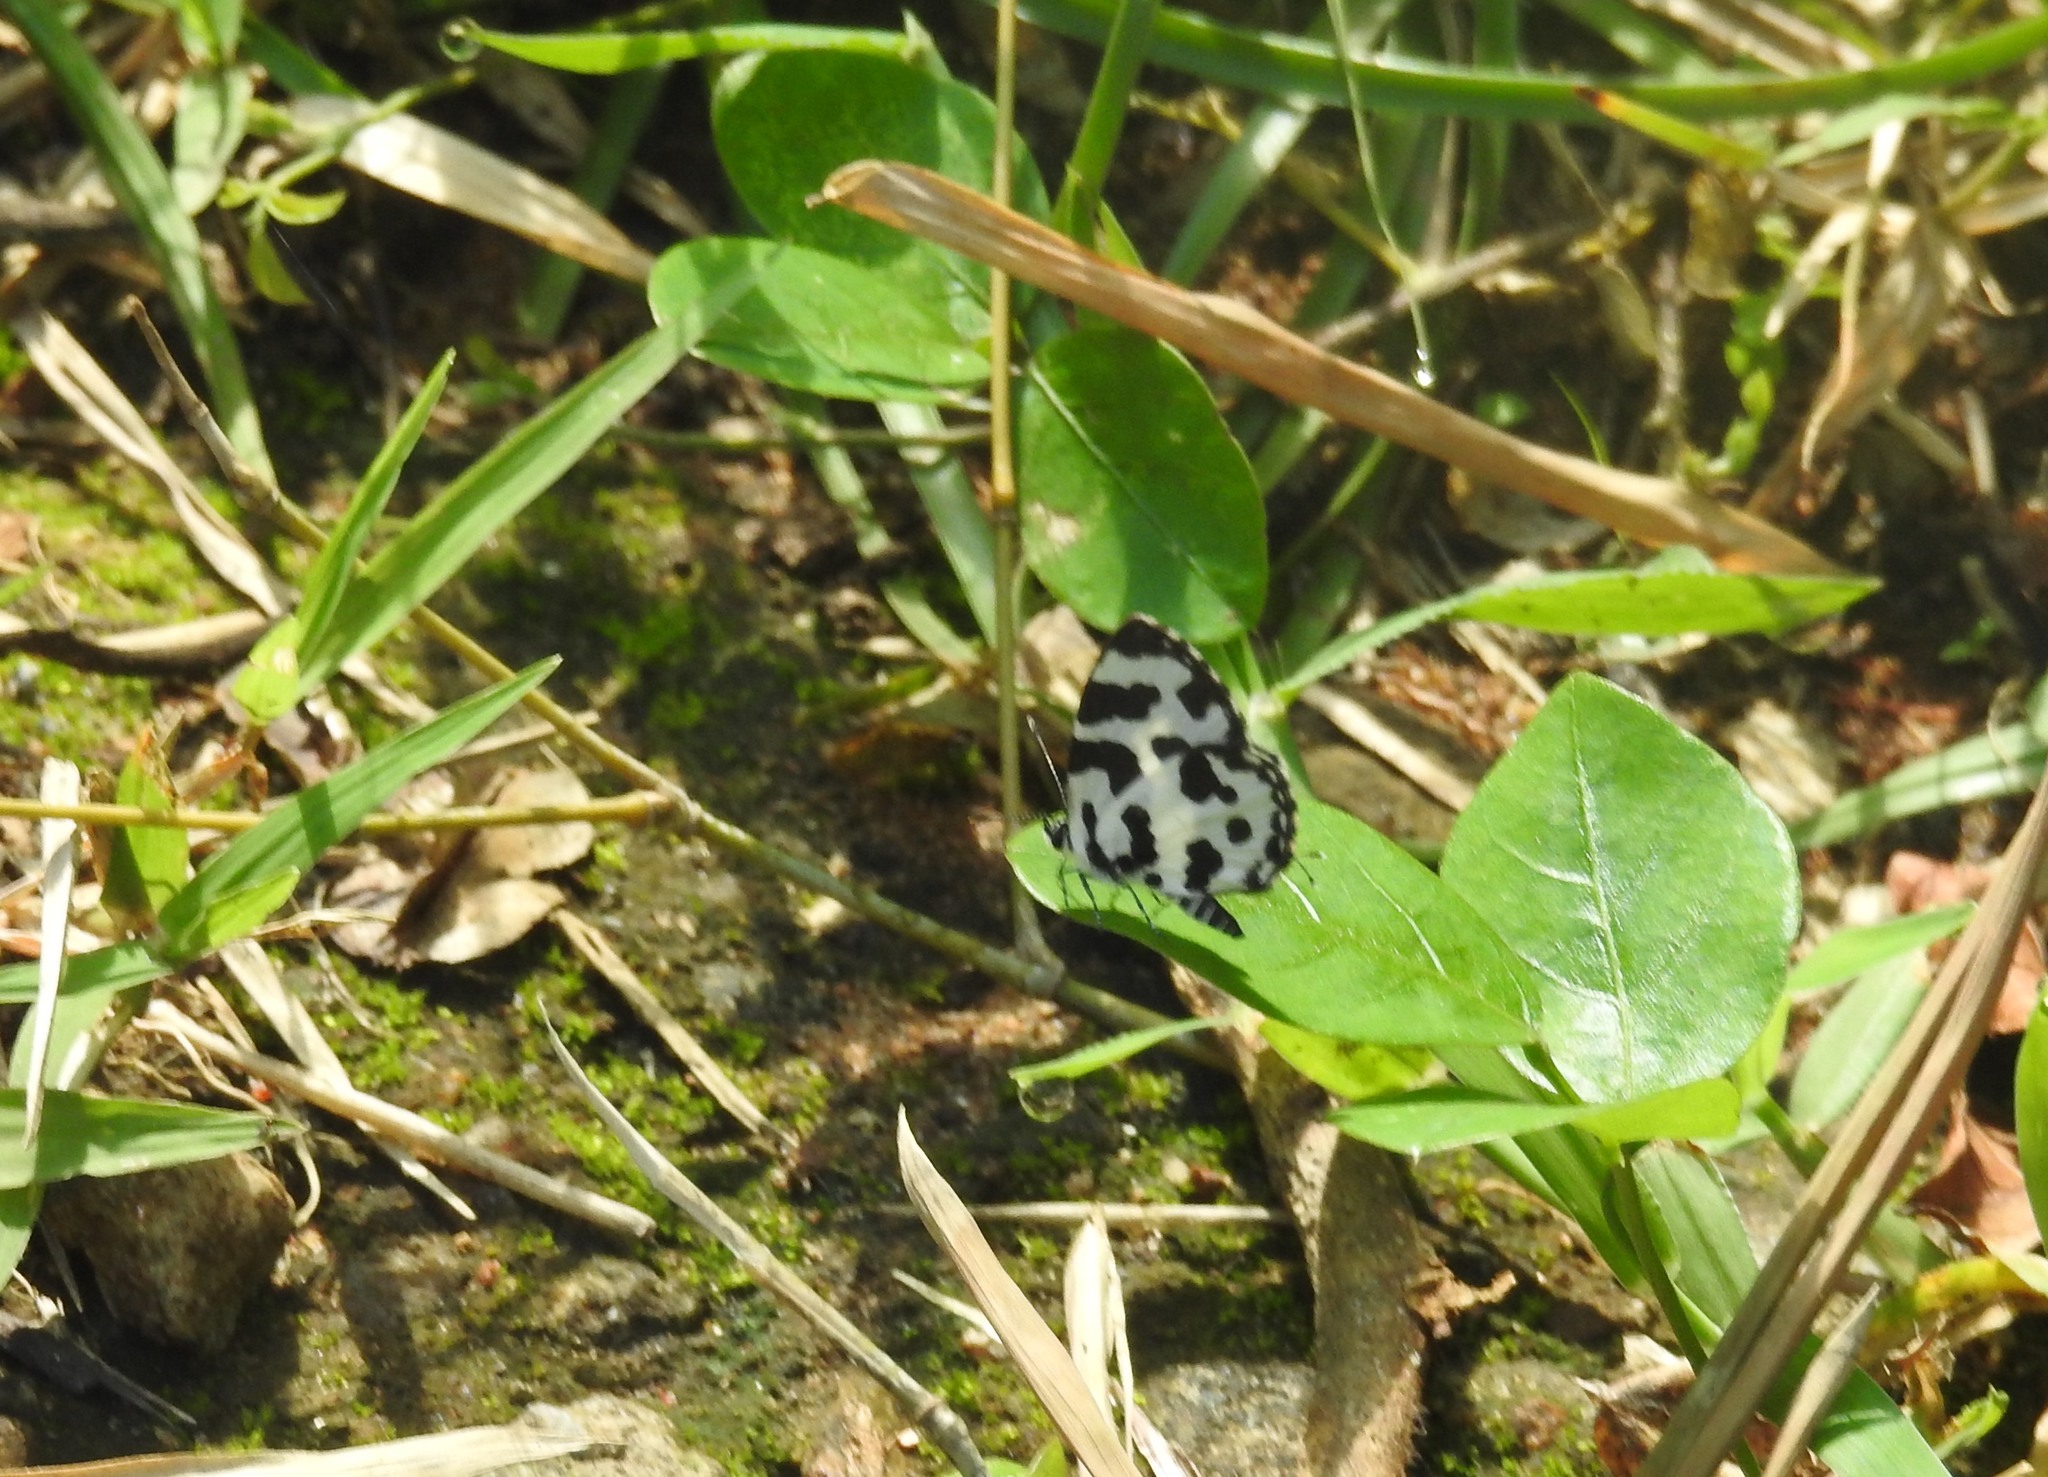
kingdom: Animalia
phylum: Arthropoda
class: Insecta
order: Lepidoptera
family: Lycaenidae
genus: Caleta
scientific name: Caleta decidia
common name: Angled pierrot
